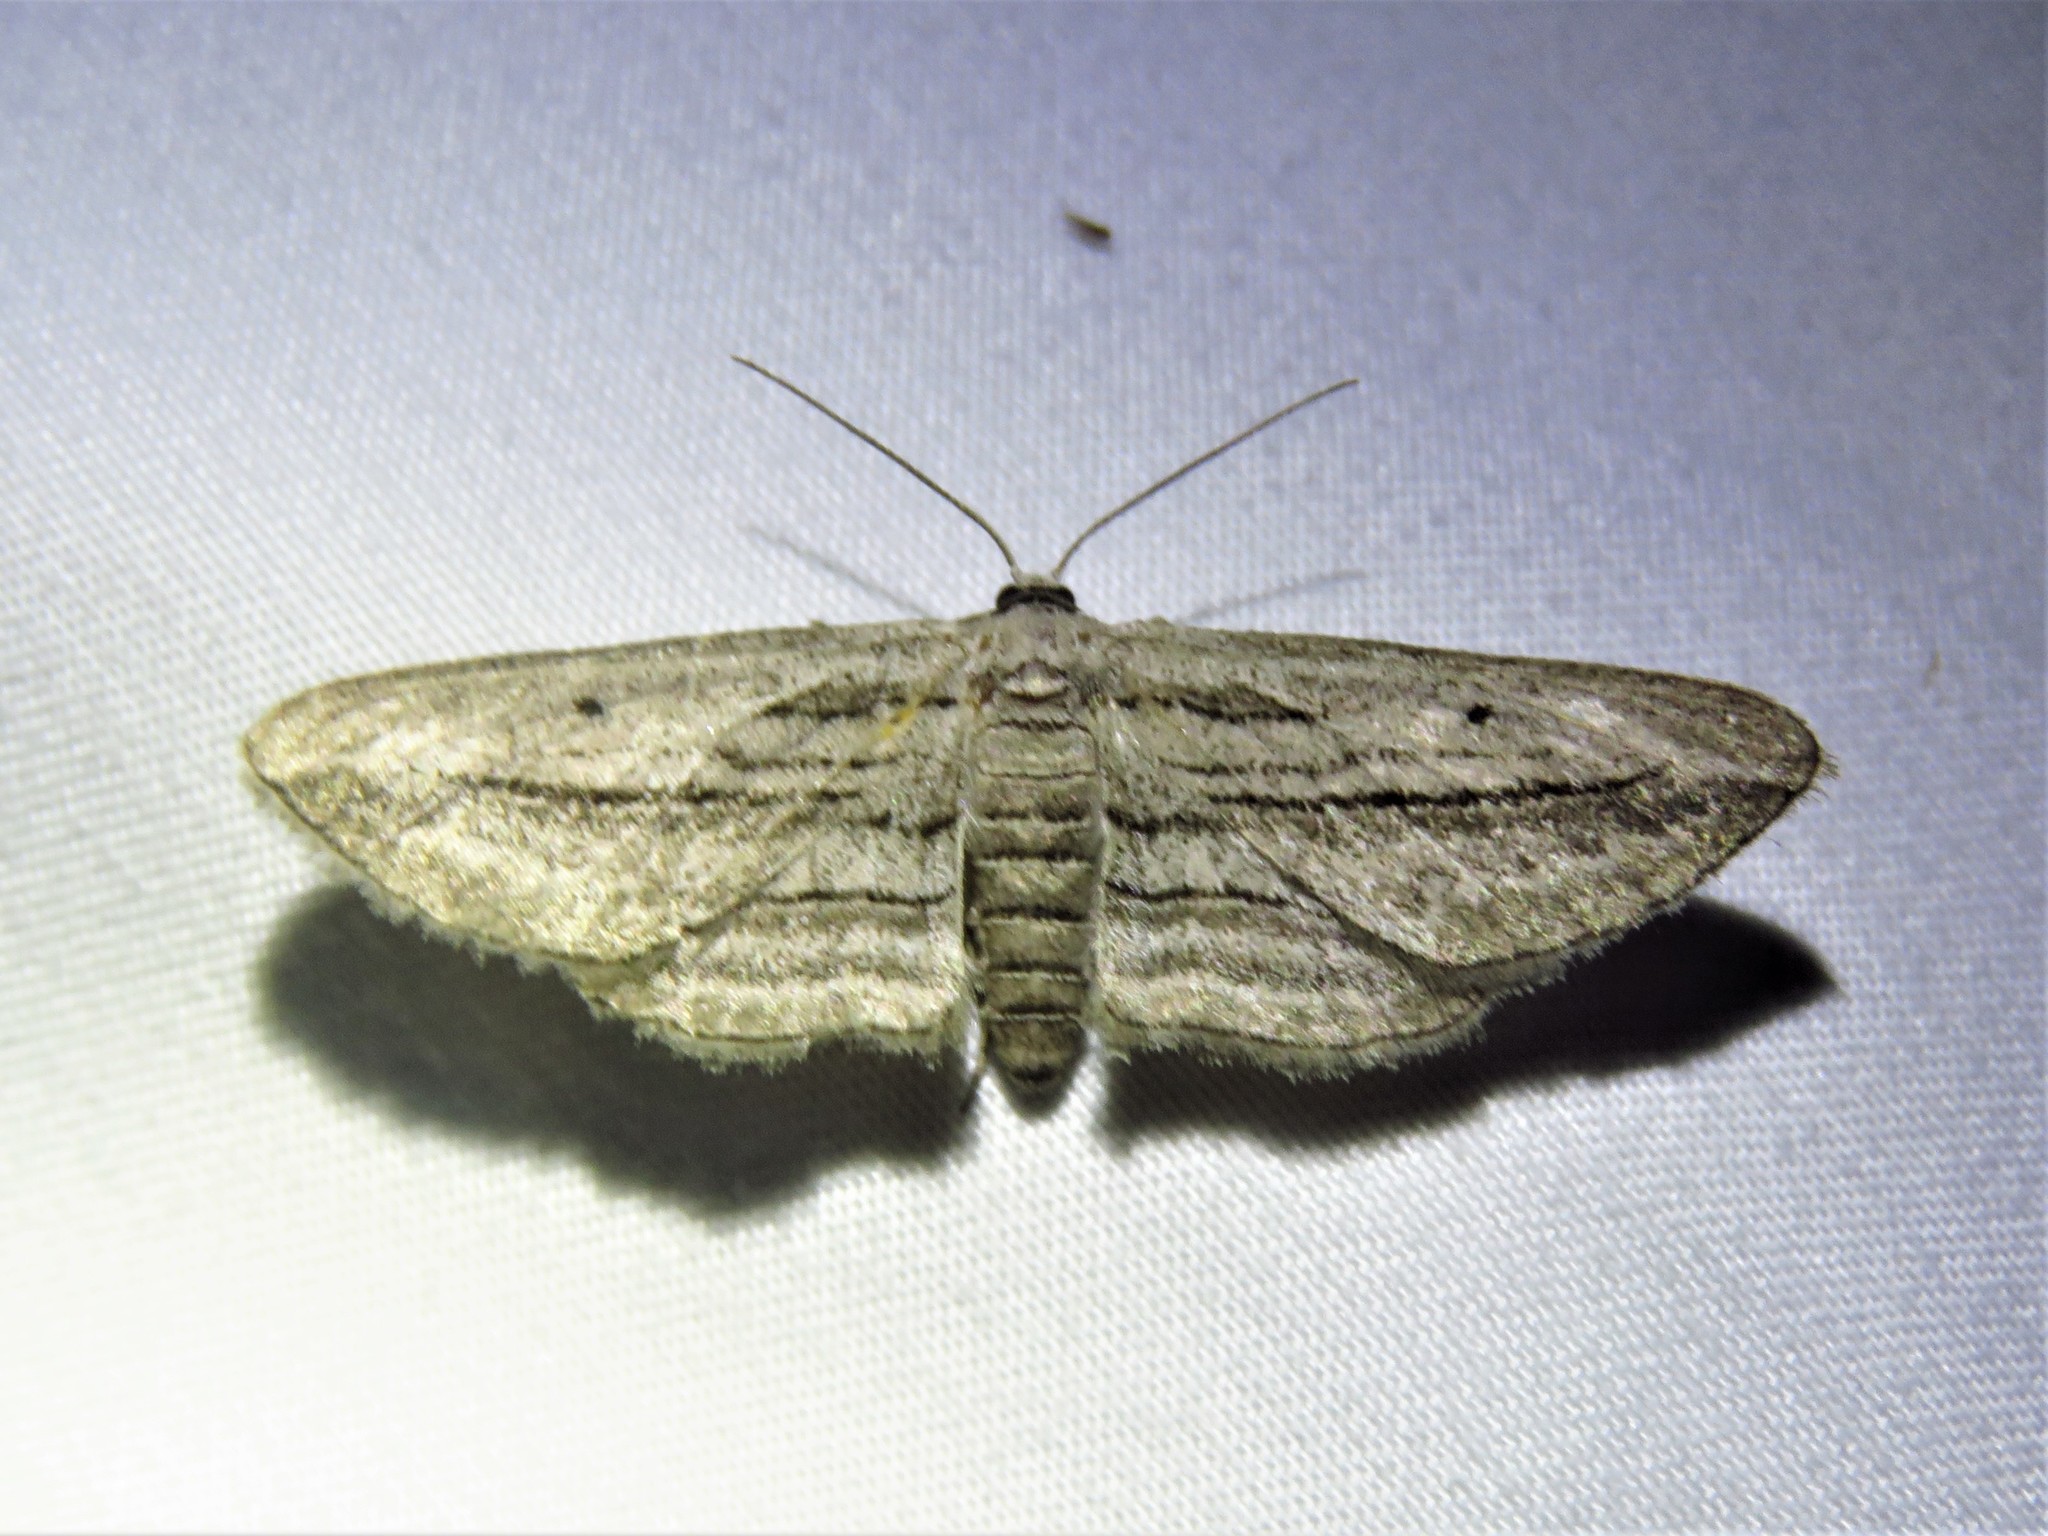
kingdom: Animalia
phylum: Arthropoda
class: Insecta
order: Lepidoptera
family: Geometridae
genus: Glena
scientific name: Glena quinquelinearia
